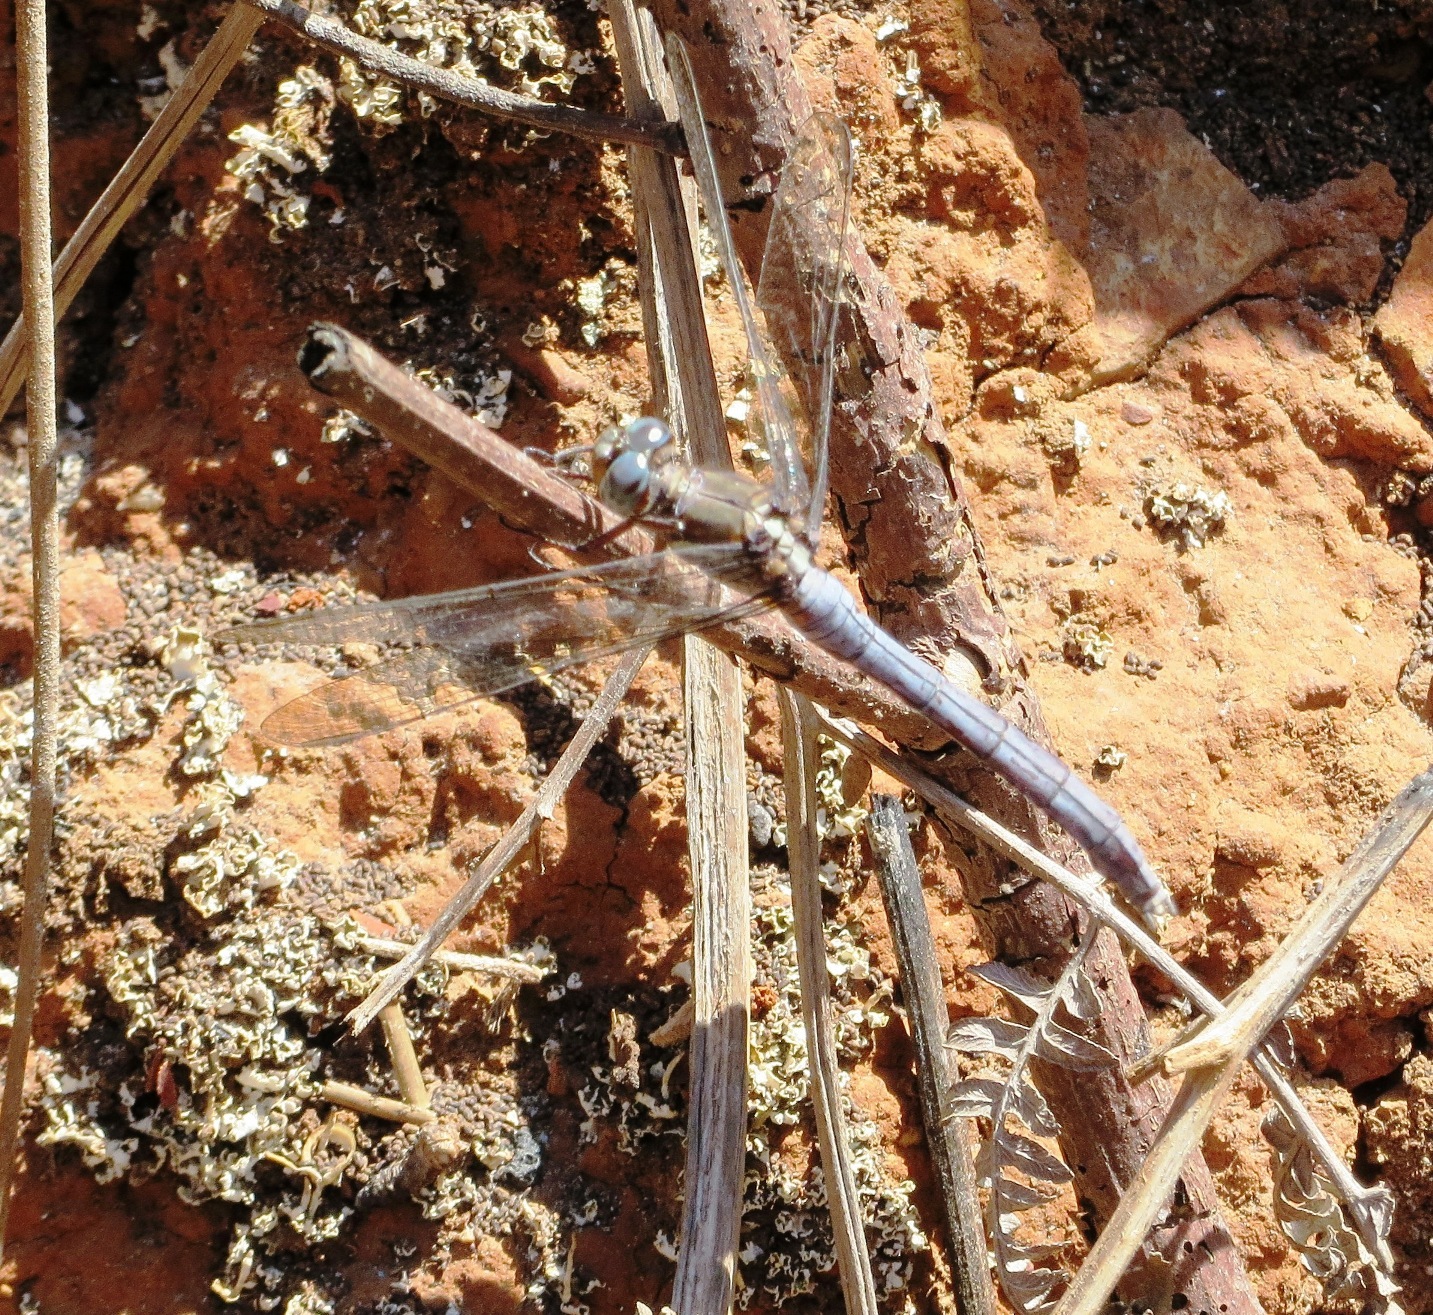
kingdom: Animalia
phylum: Arthropoda
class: Insecta
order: Odonata
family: Libellulidae
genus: Orthetrum
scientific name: Orthetrum julia
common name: Julia skimmer
